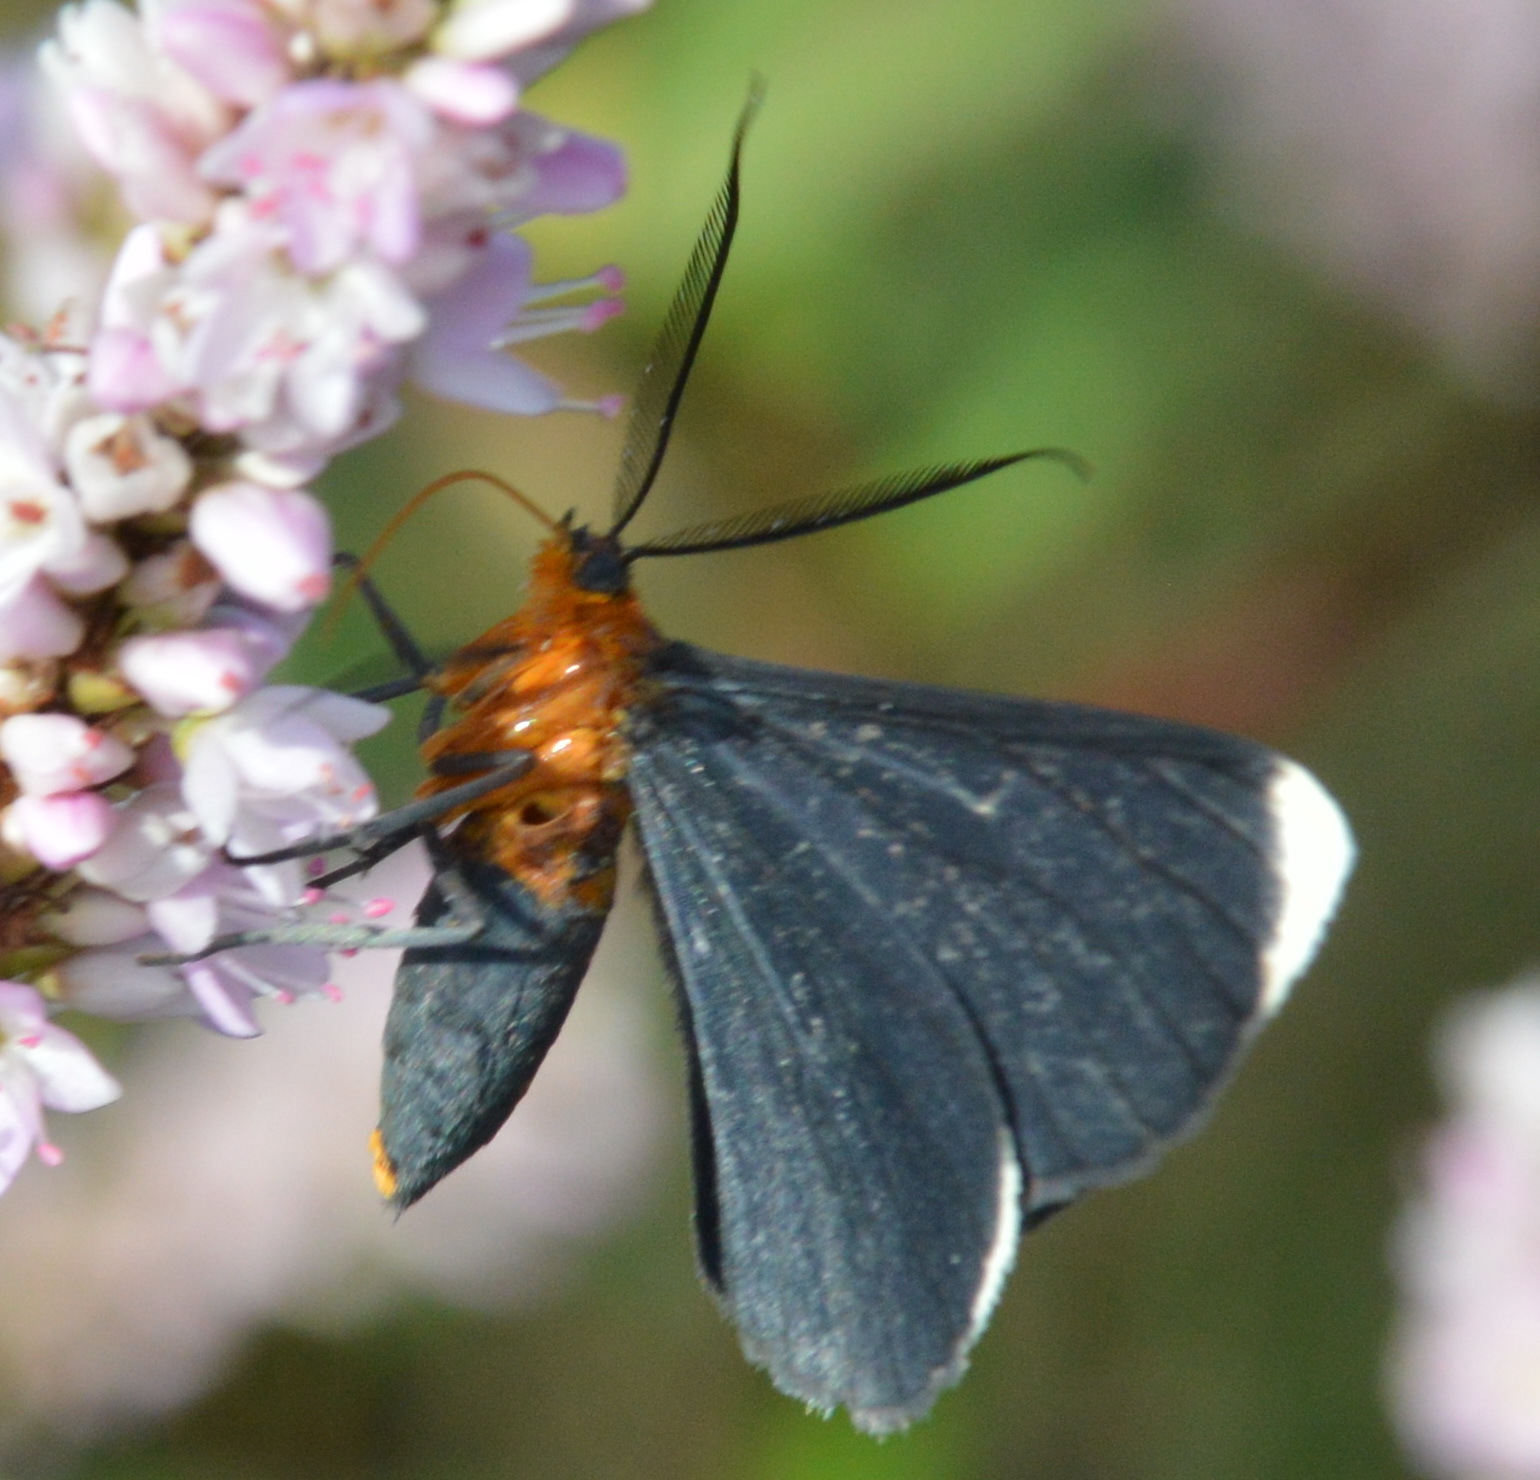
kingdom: Animalia
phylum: Arthropoda
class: Insecta
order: Lepidoptera
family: Geometridae
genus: Melanchroia
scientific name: Melanchroia chephise
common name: White-tipped black
